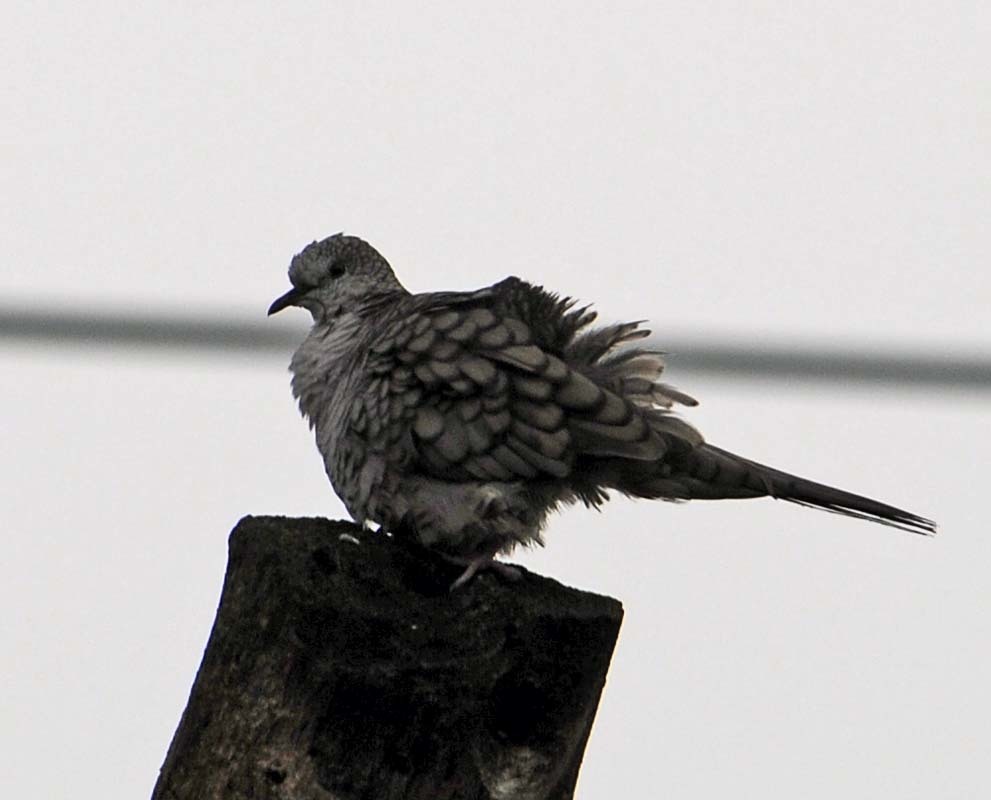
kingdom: Animalia
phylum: Chordata
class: Aves
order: Columbiformes
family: Columbidae
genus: Columbina
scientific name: Columbina inca
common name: Inca dove
